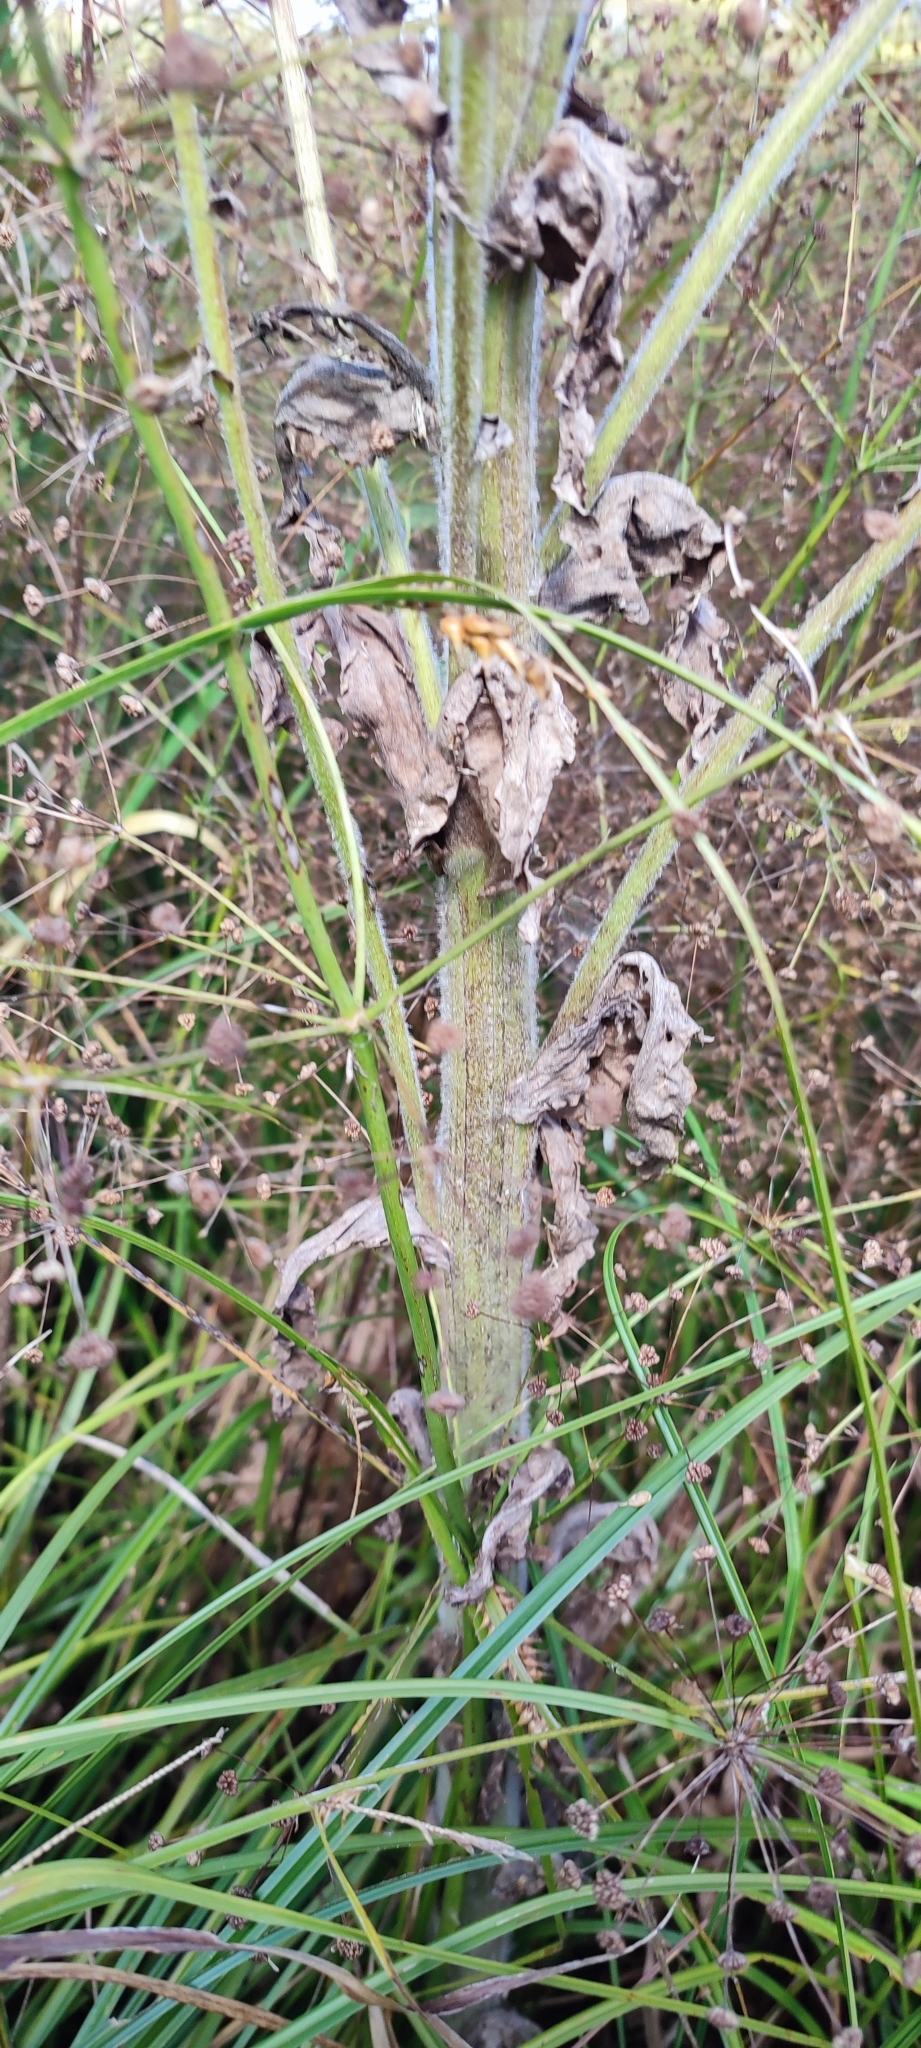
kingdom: Plantae
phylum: Tracheophyta
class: Magnoliopsida
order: Asterales
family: Asteraceae
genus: Tephroseris
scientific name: Tephroseris palustris
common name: Marsh fleawort
